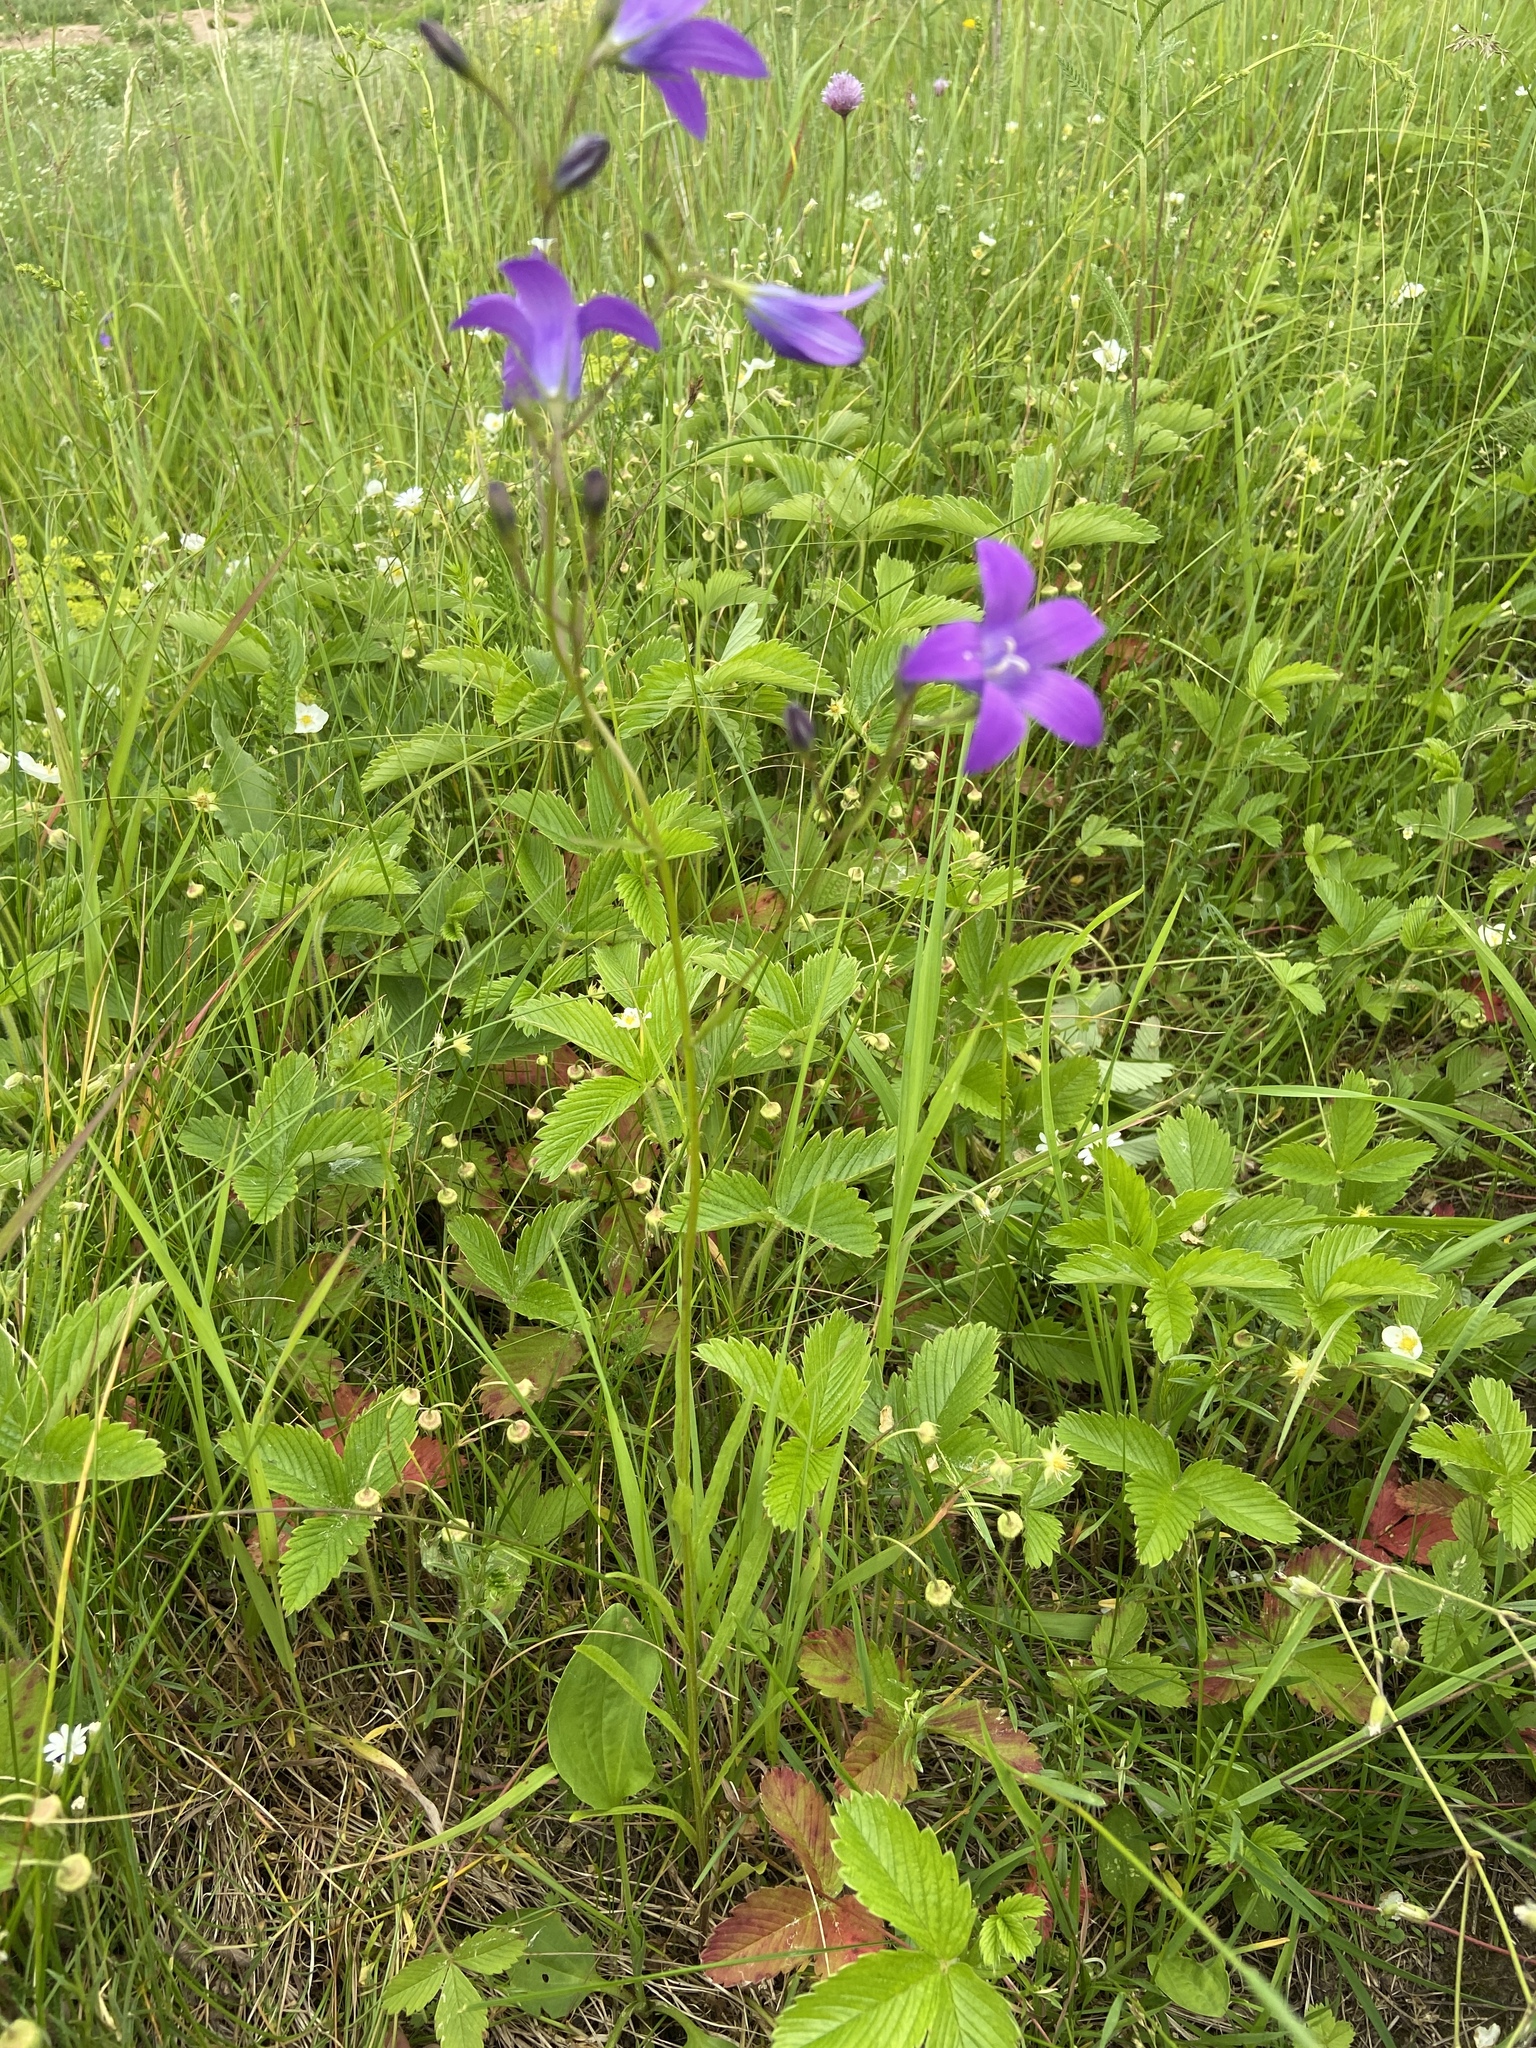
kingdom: Plantae
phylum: Tracheophyta
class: Magnoliopsida
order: Asterales
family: Campanulaceae
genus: Campanula
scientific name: Campanula patula
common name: Spreading bellflower
